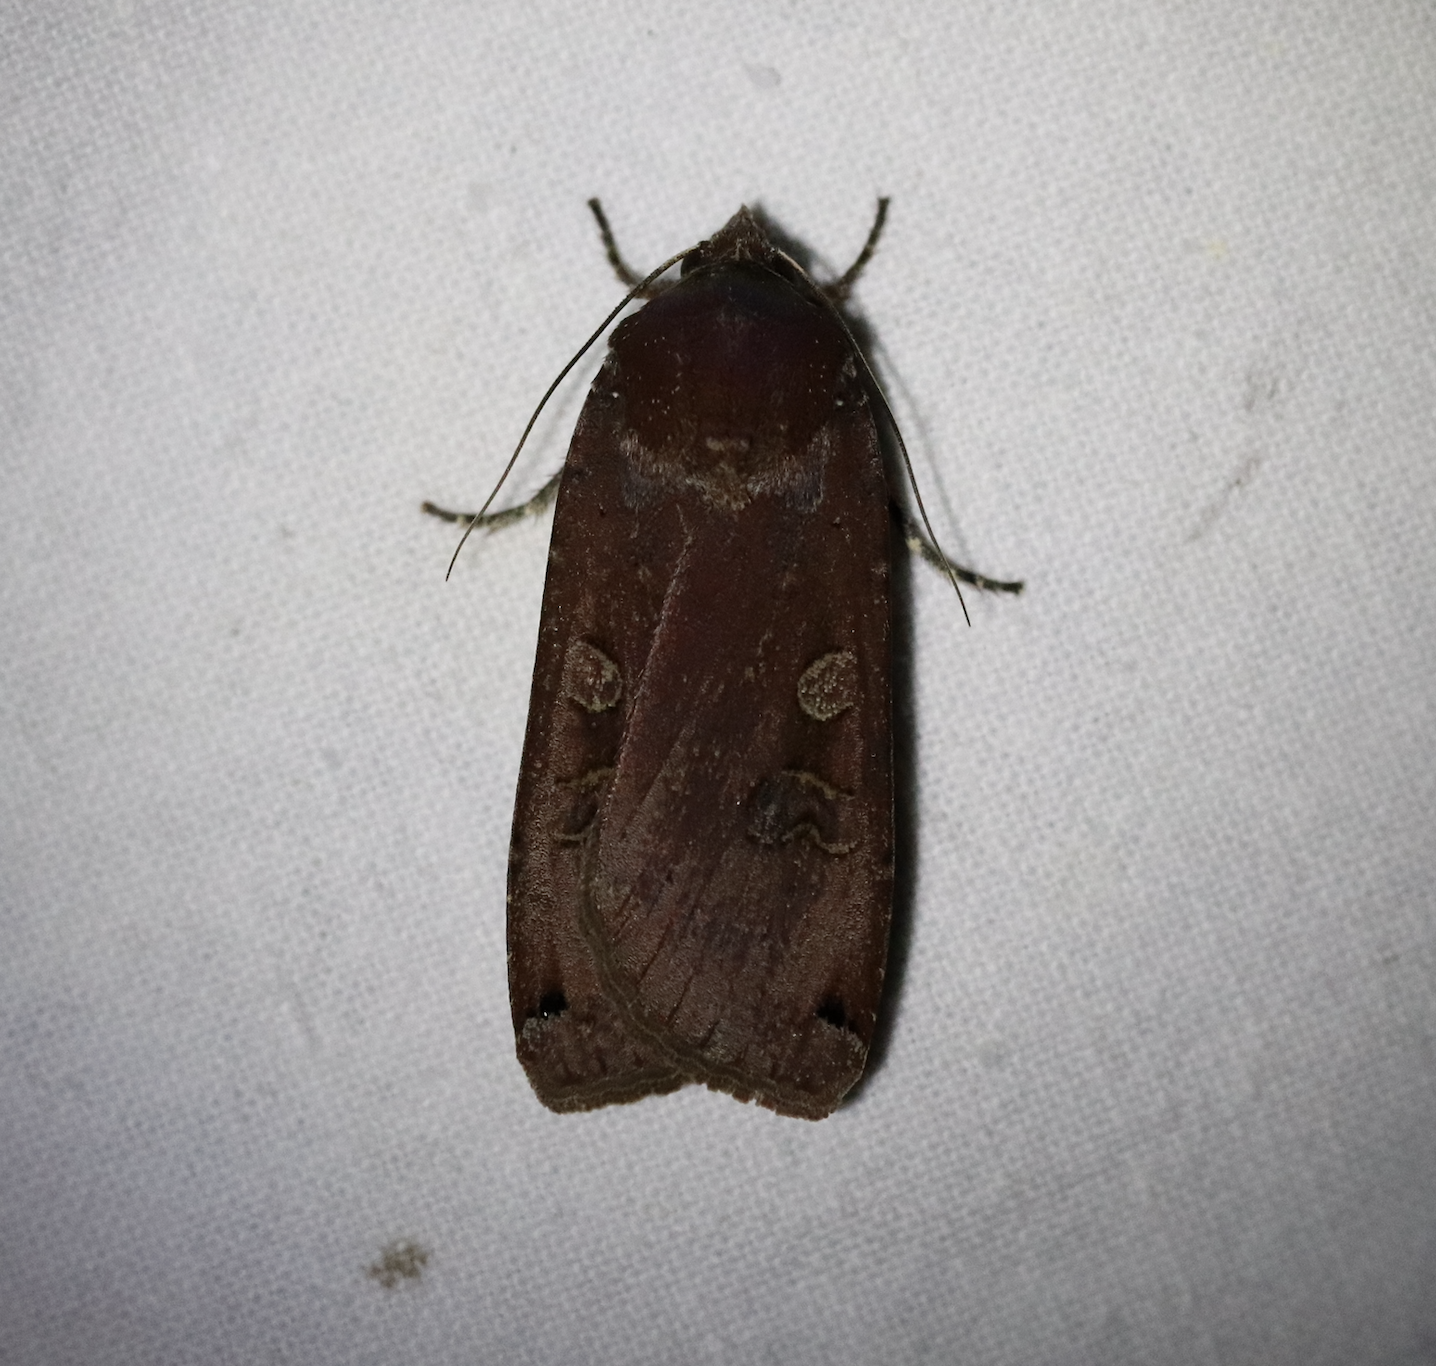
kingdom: Animalia
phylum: Arthropoda
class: Insecta
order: Lepidoptera
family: Noctuidae
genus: Noctua
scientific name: Noctua pronuba
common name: Large yellow underwing
